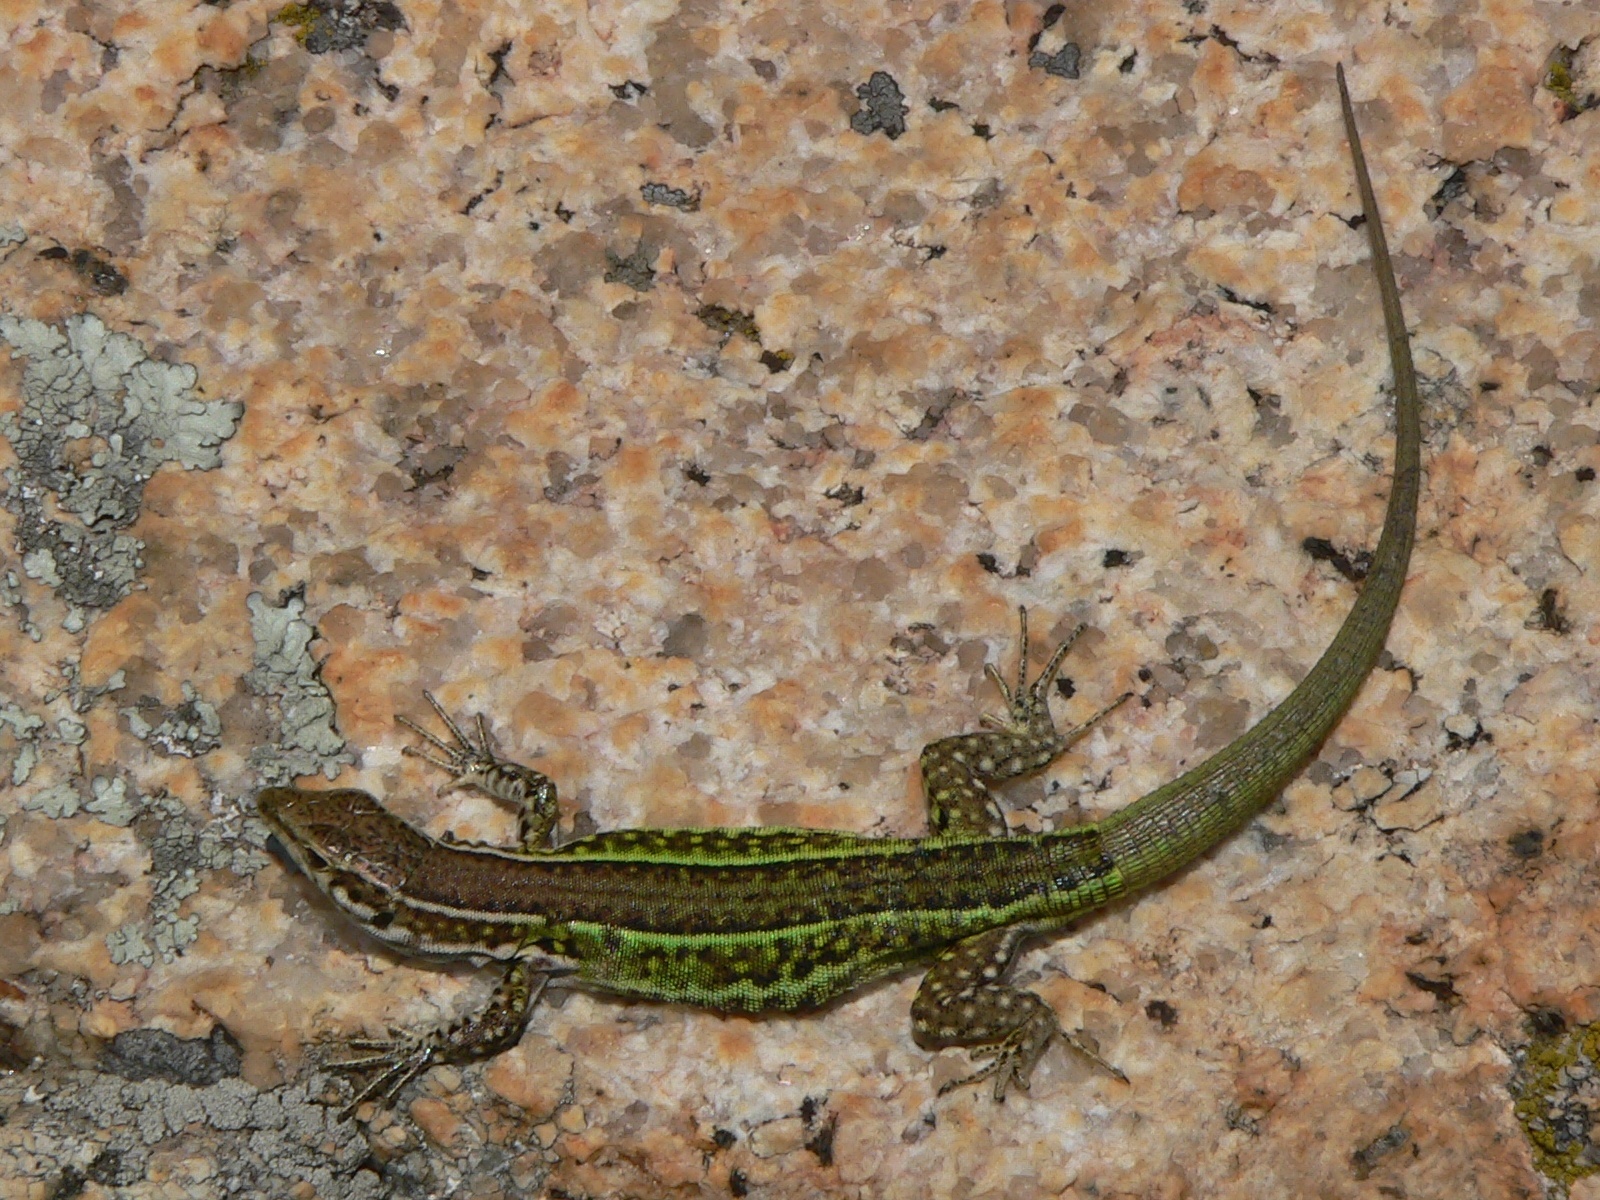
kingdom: Animalia
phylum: Chordata
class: Squamata
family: Lacertidae
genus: Podarcis
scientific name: Podarcis tiliguerta
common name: Tyrrhenian wall lizard
